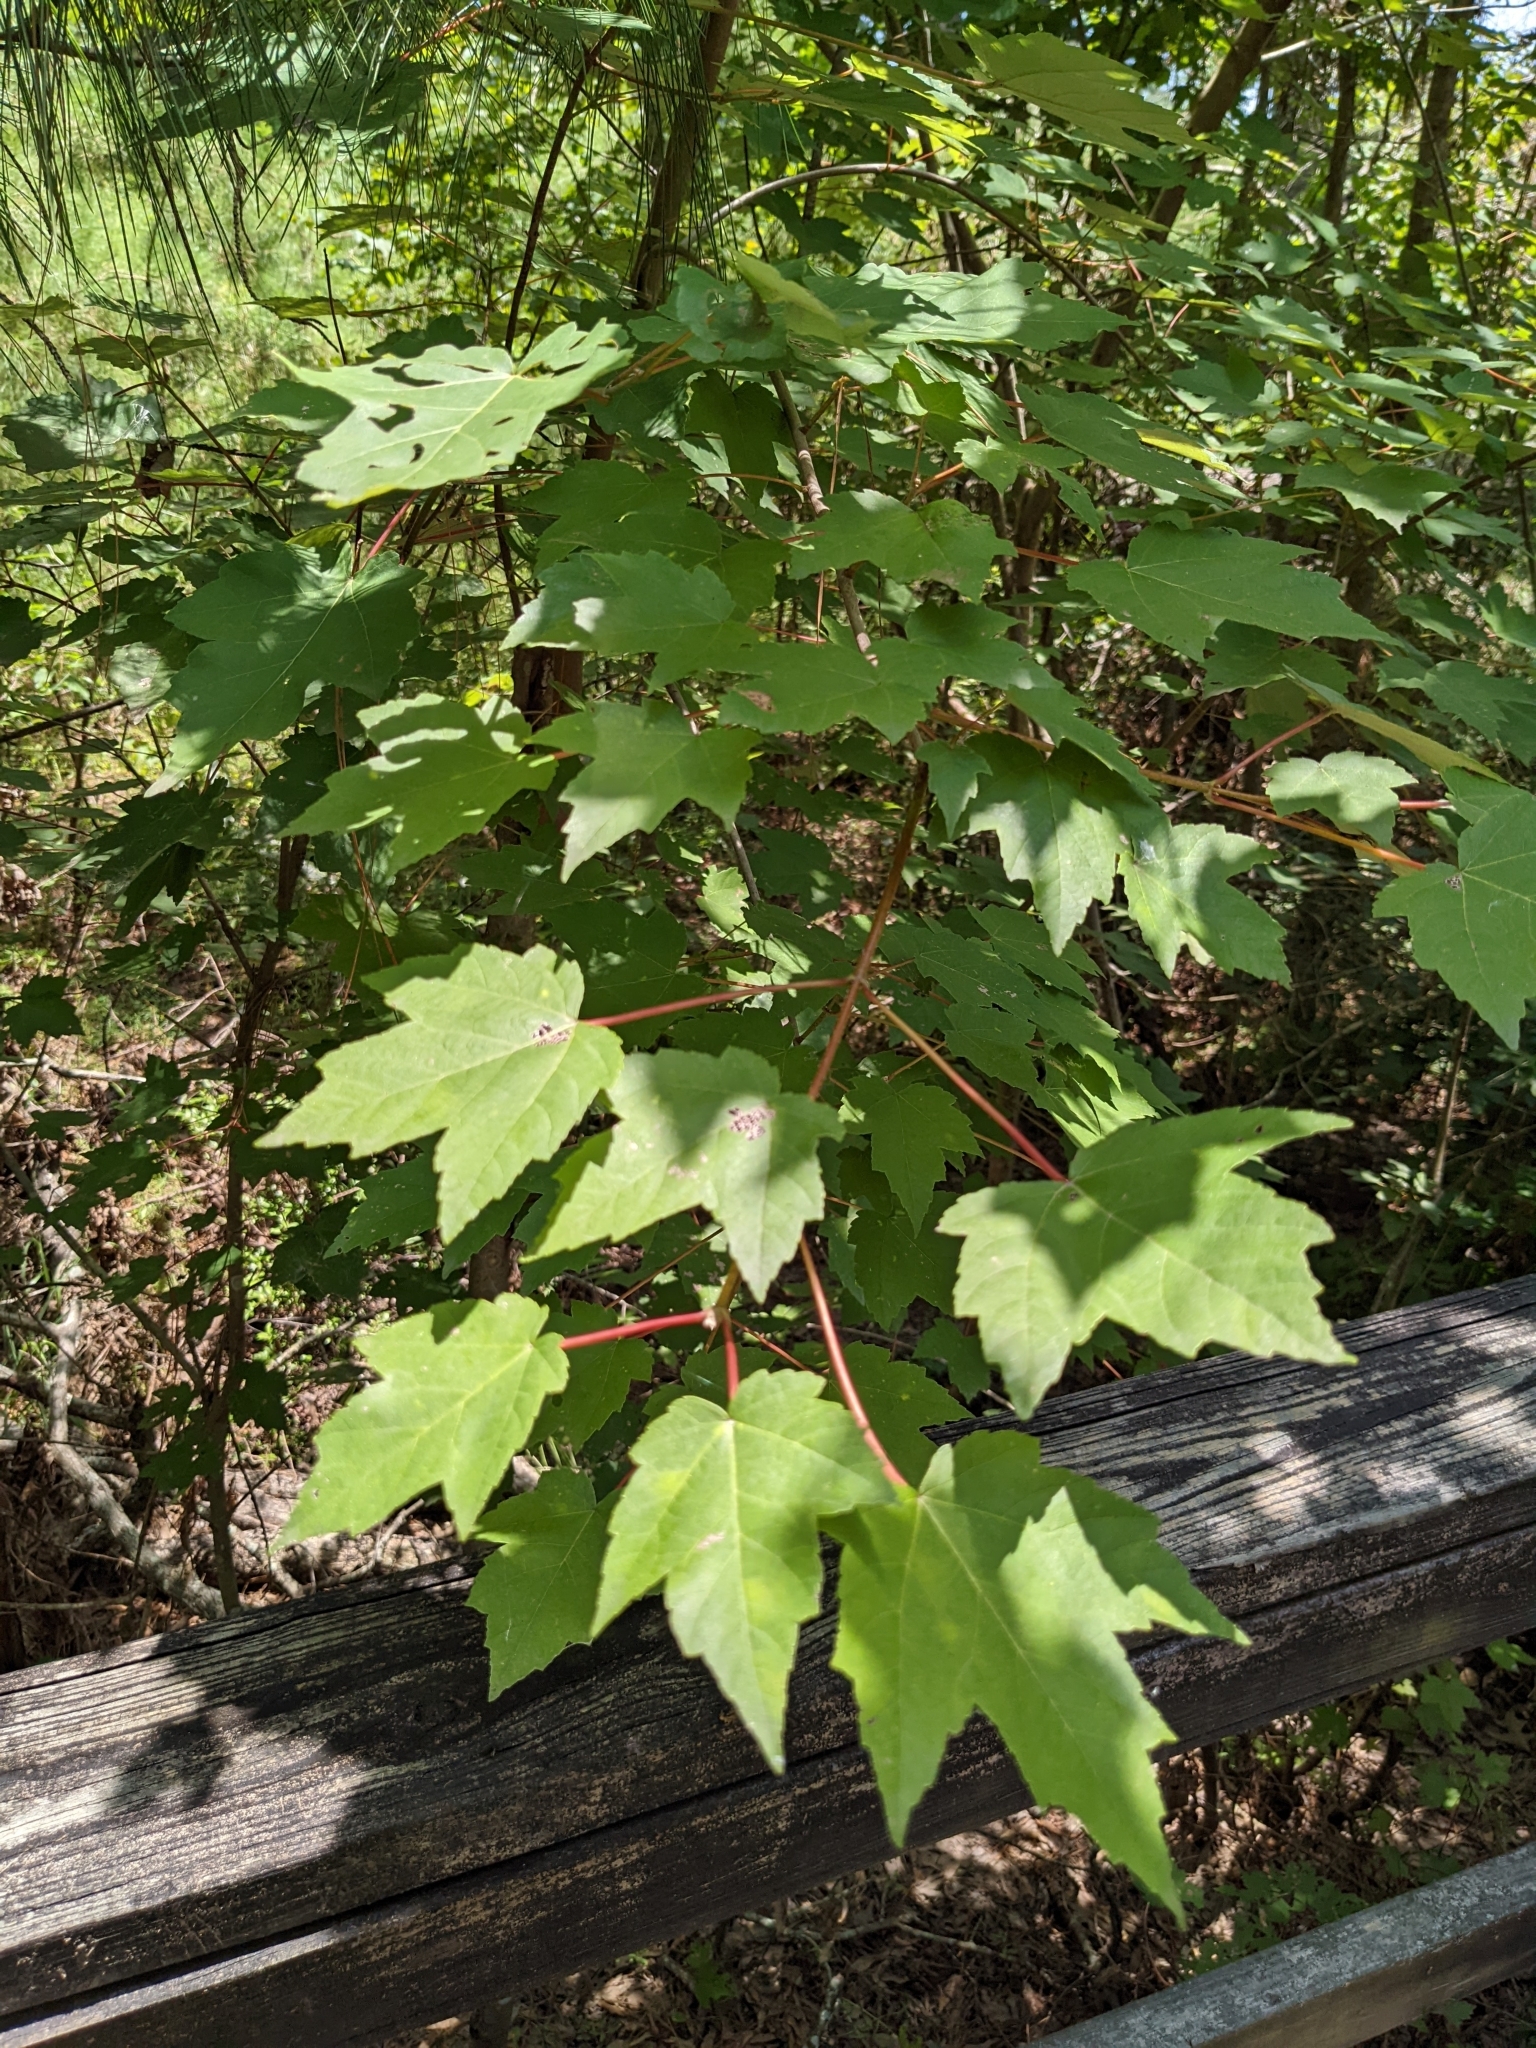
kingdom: Plantae
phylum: Tracheophyta
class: Magnoliopsida
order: Sapindales
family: Sapindaceae
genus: Acer
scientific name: Acer rubrum
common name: Red maple
